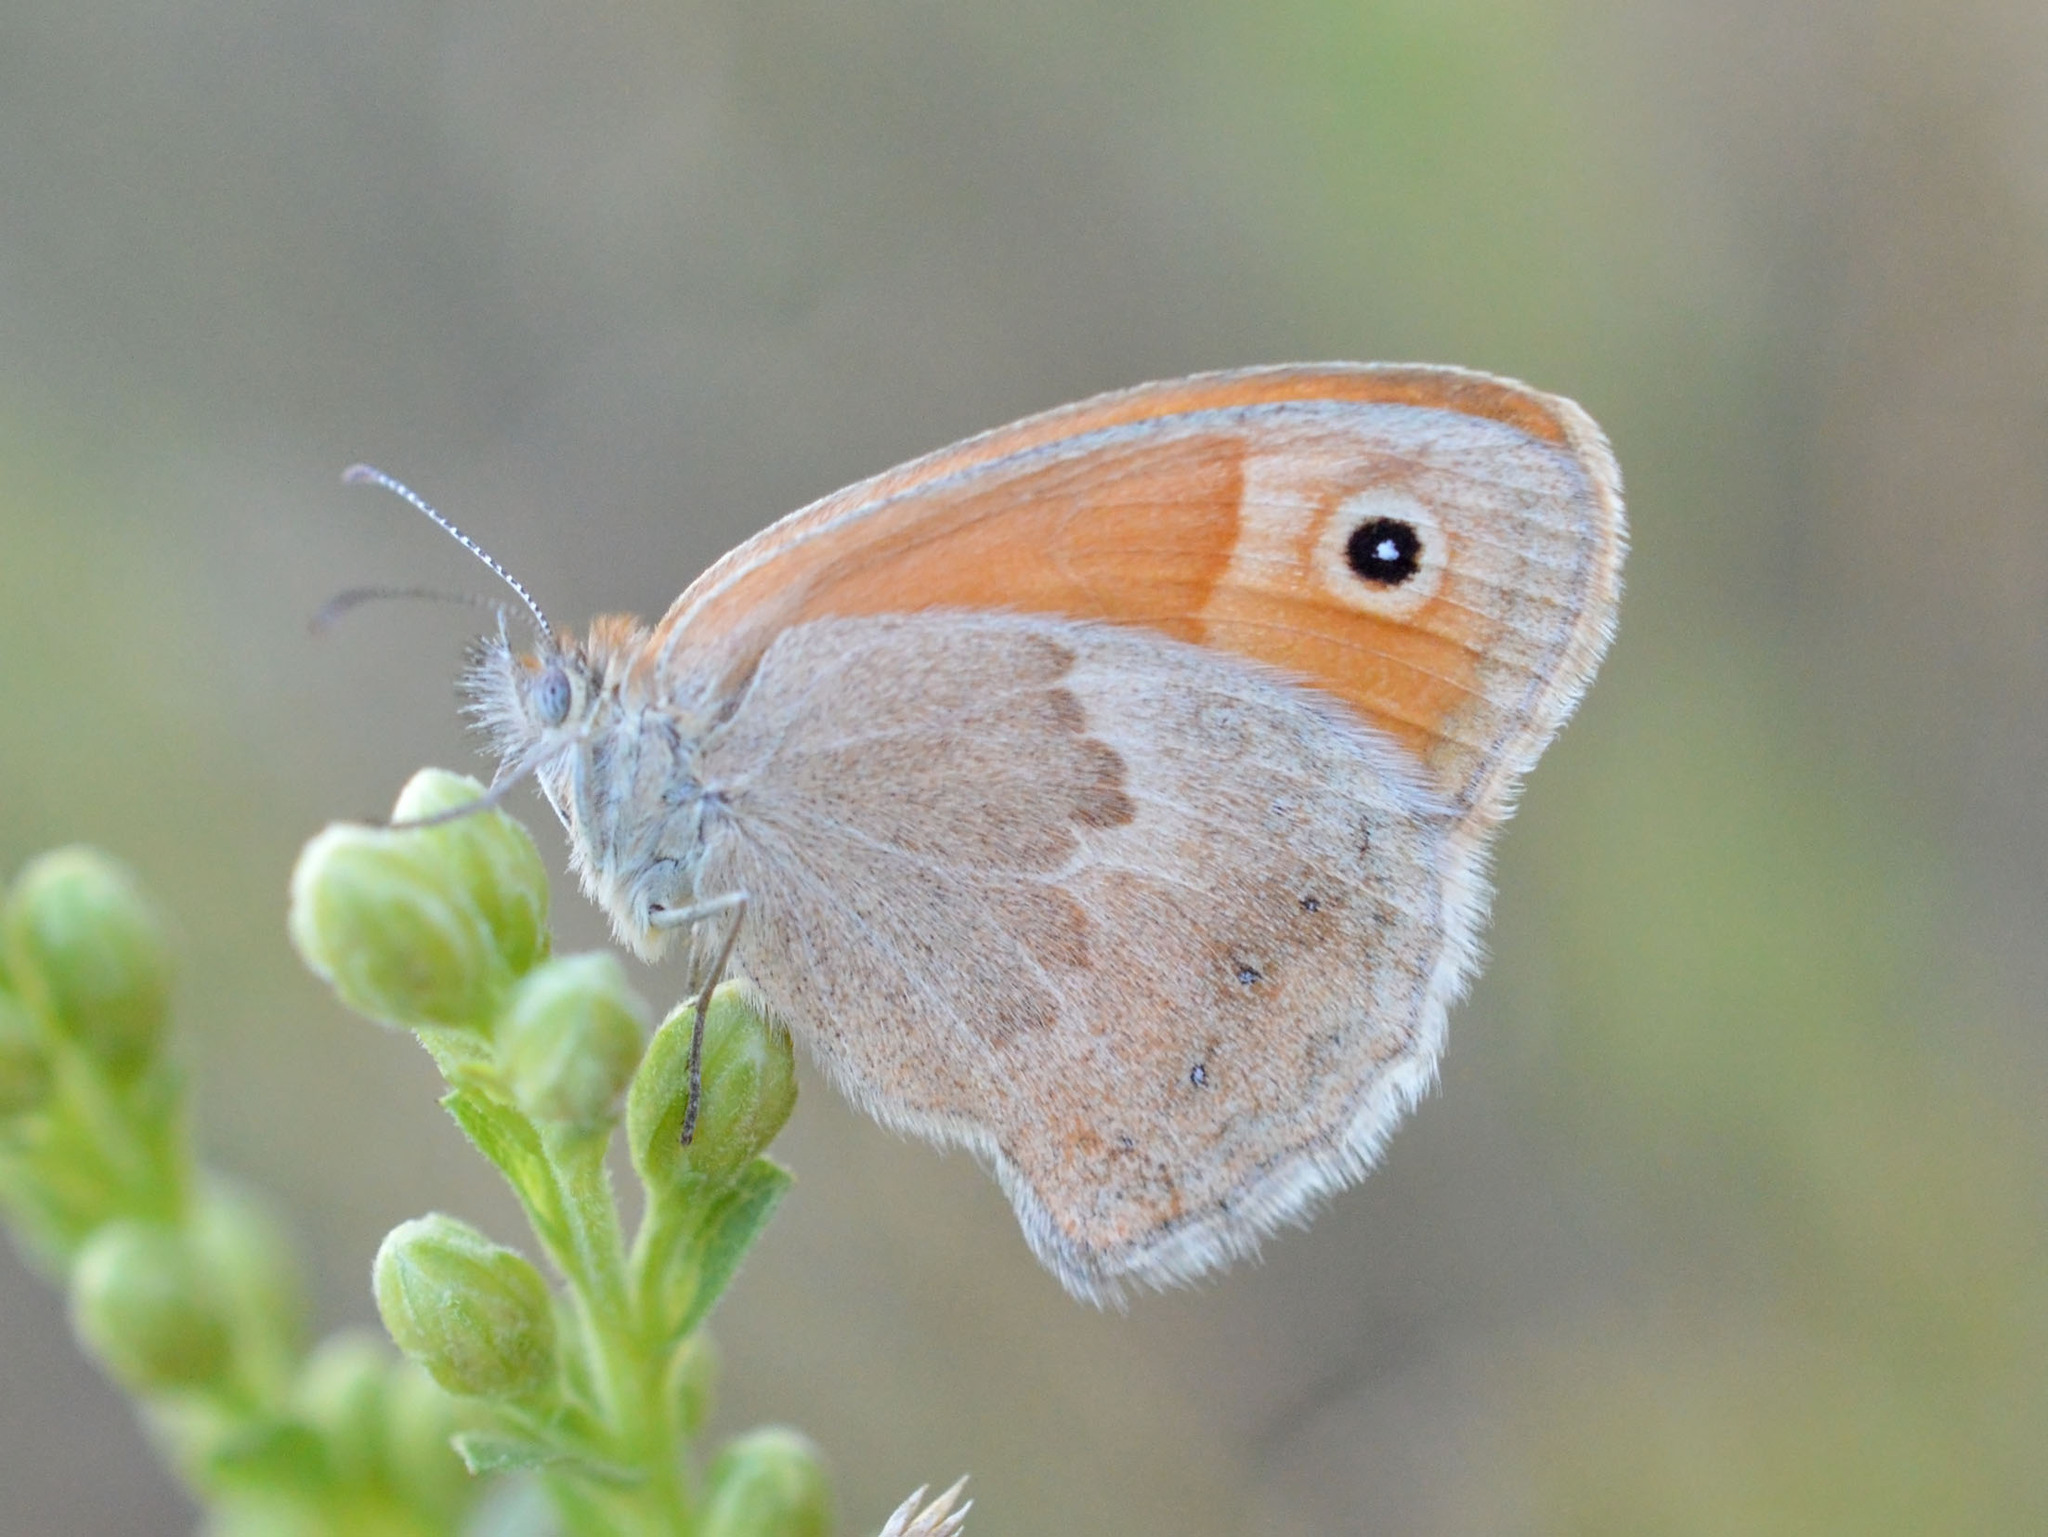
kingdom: Animalia
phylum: Arthropoda
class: Insecta
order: Lepidoptera
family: Nymphalidae
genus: Coenonympha
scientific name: Coenonympha pamphilus
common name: Small heath
